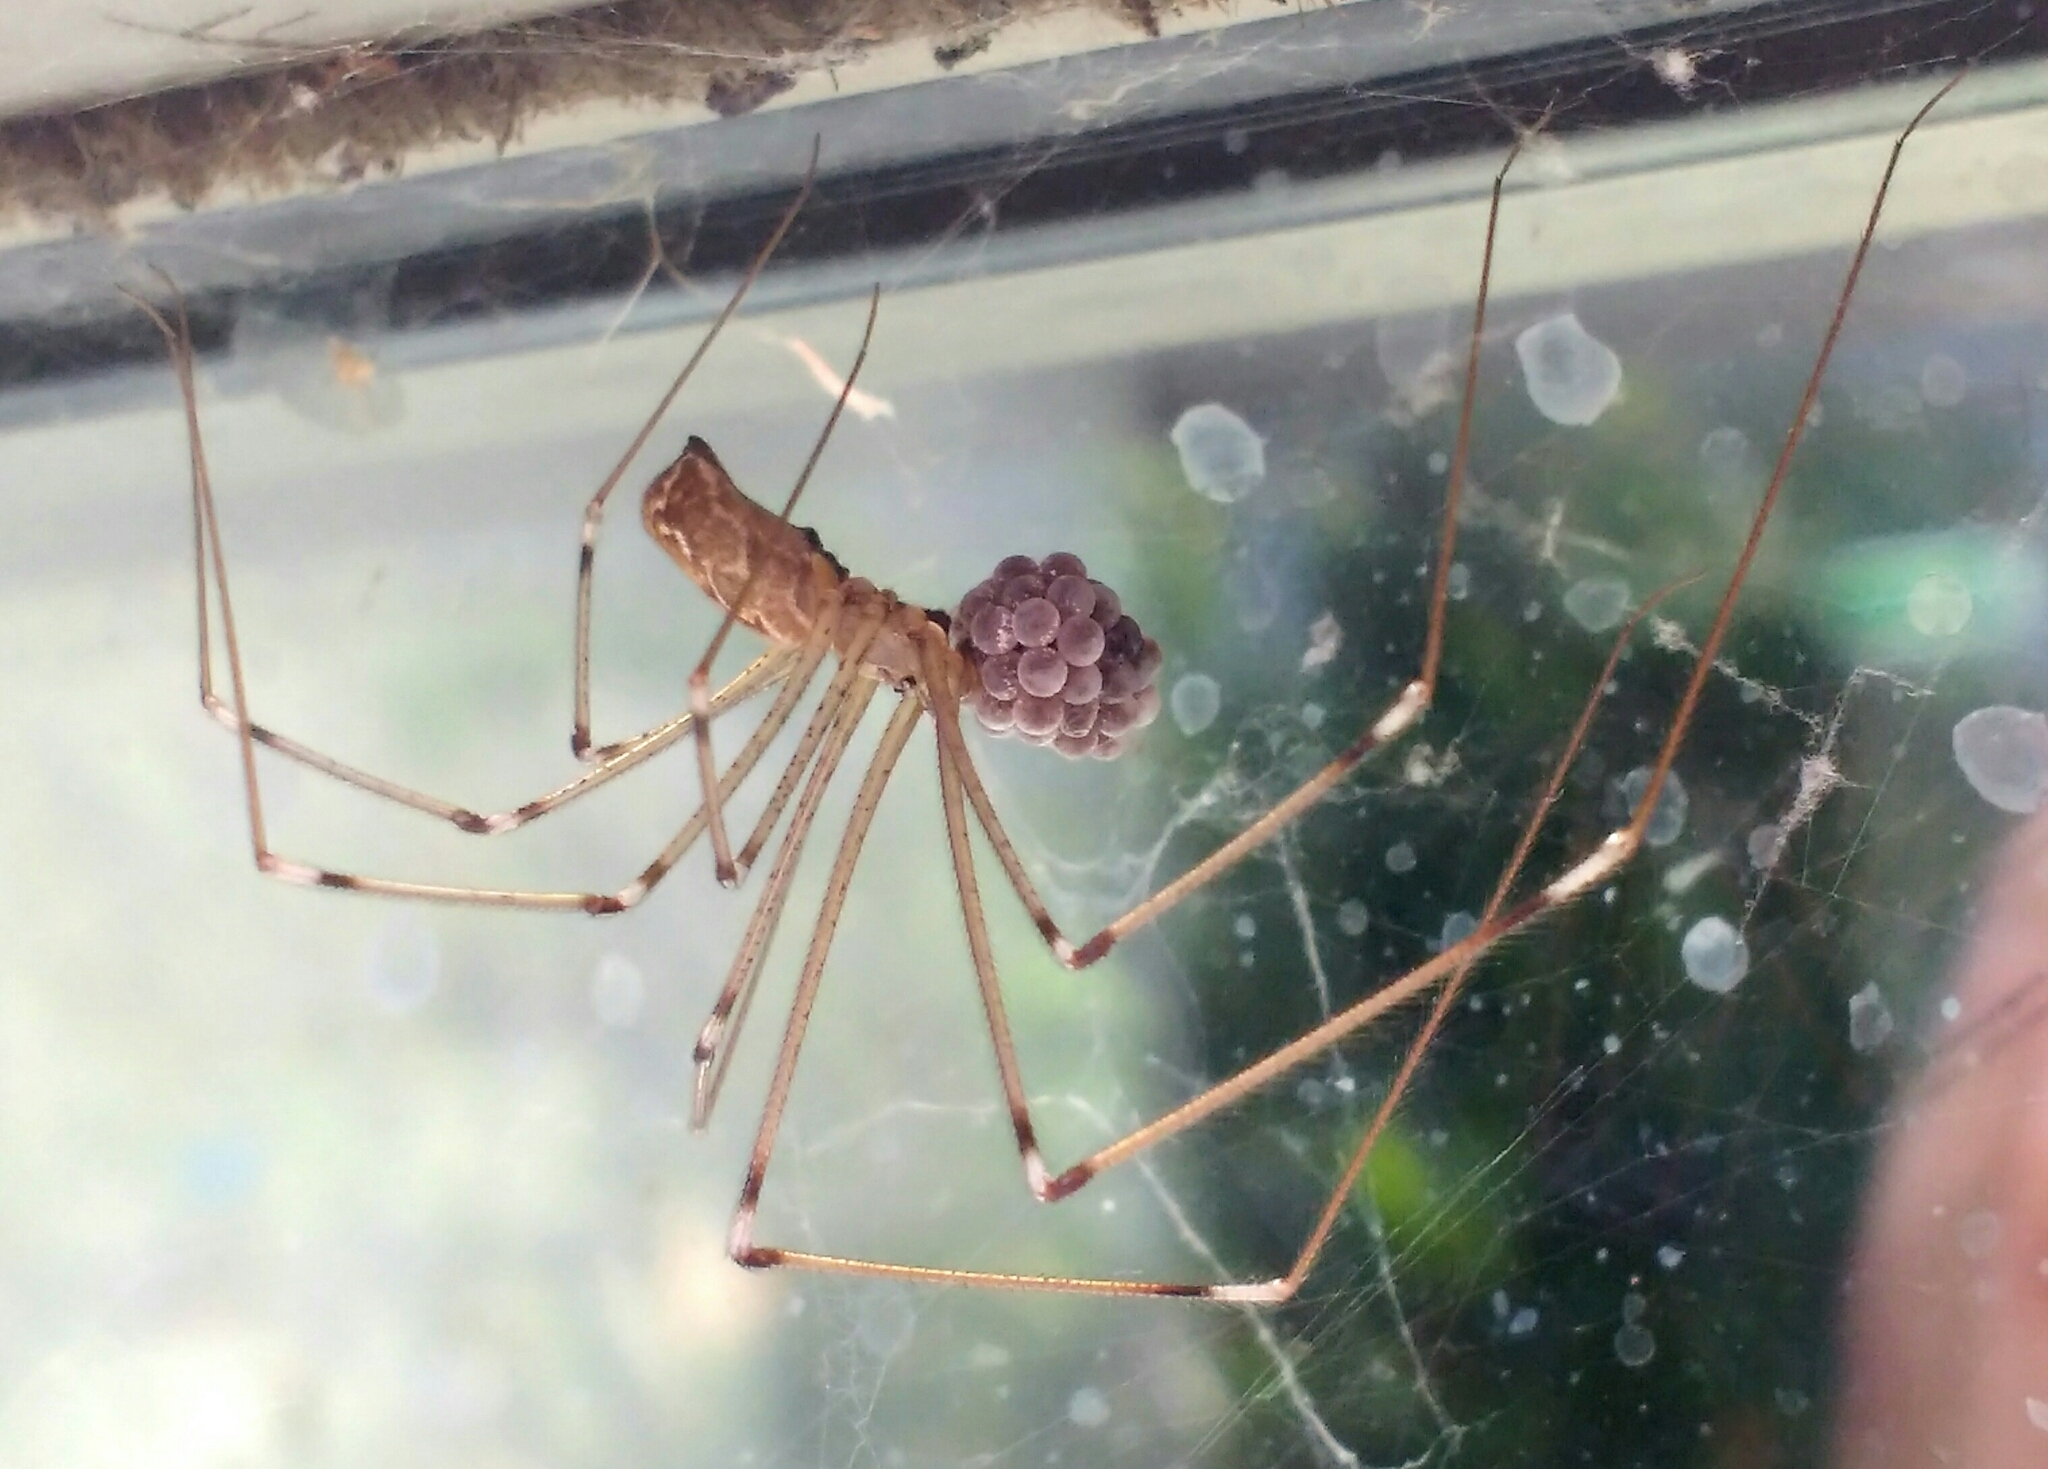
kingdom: Animalia
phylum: Arthropoda
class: Arachnida
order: Araneae
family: Pholcidae
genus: Holocnemus
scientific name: Holocnemus pluchei
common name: Marbled cellar spider
